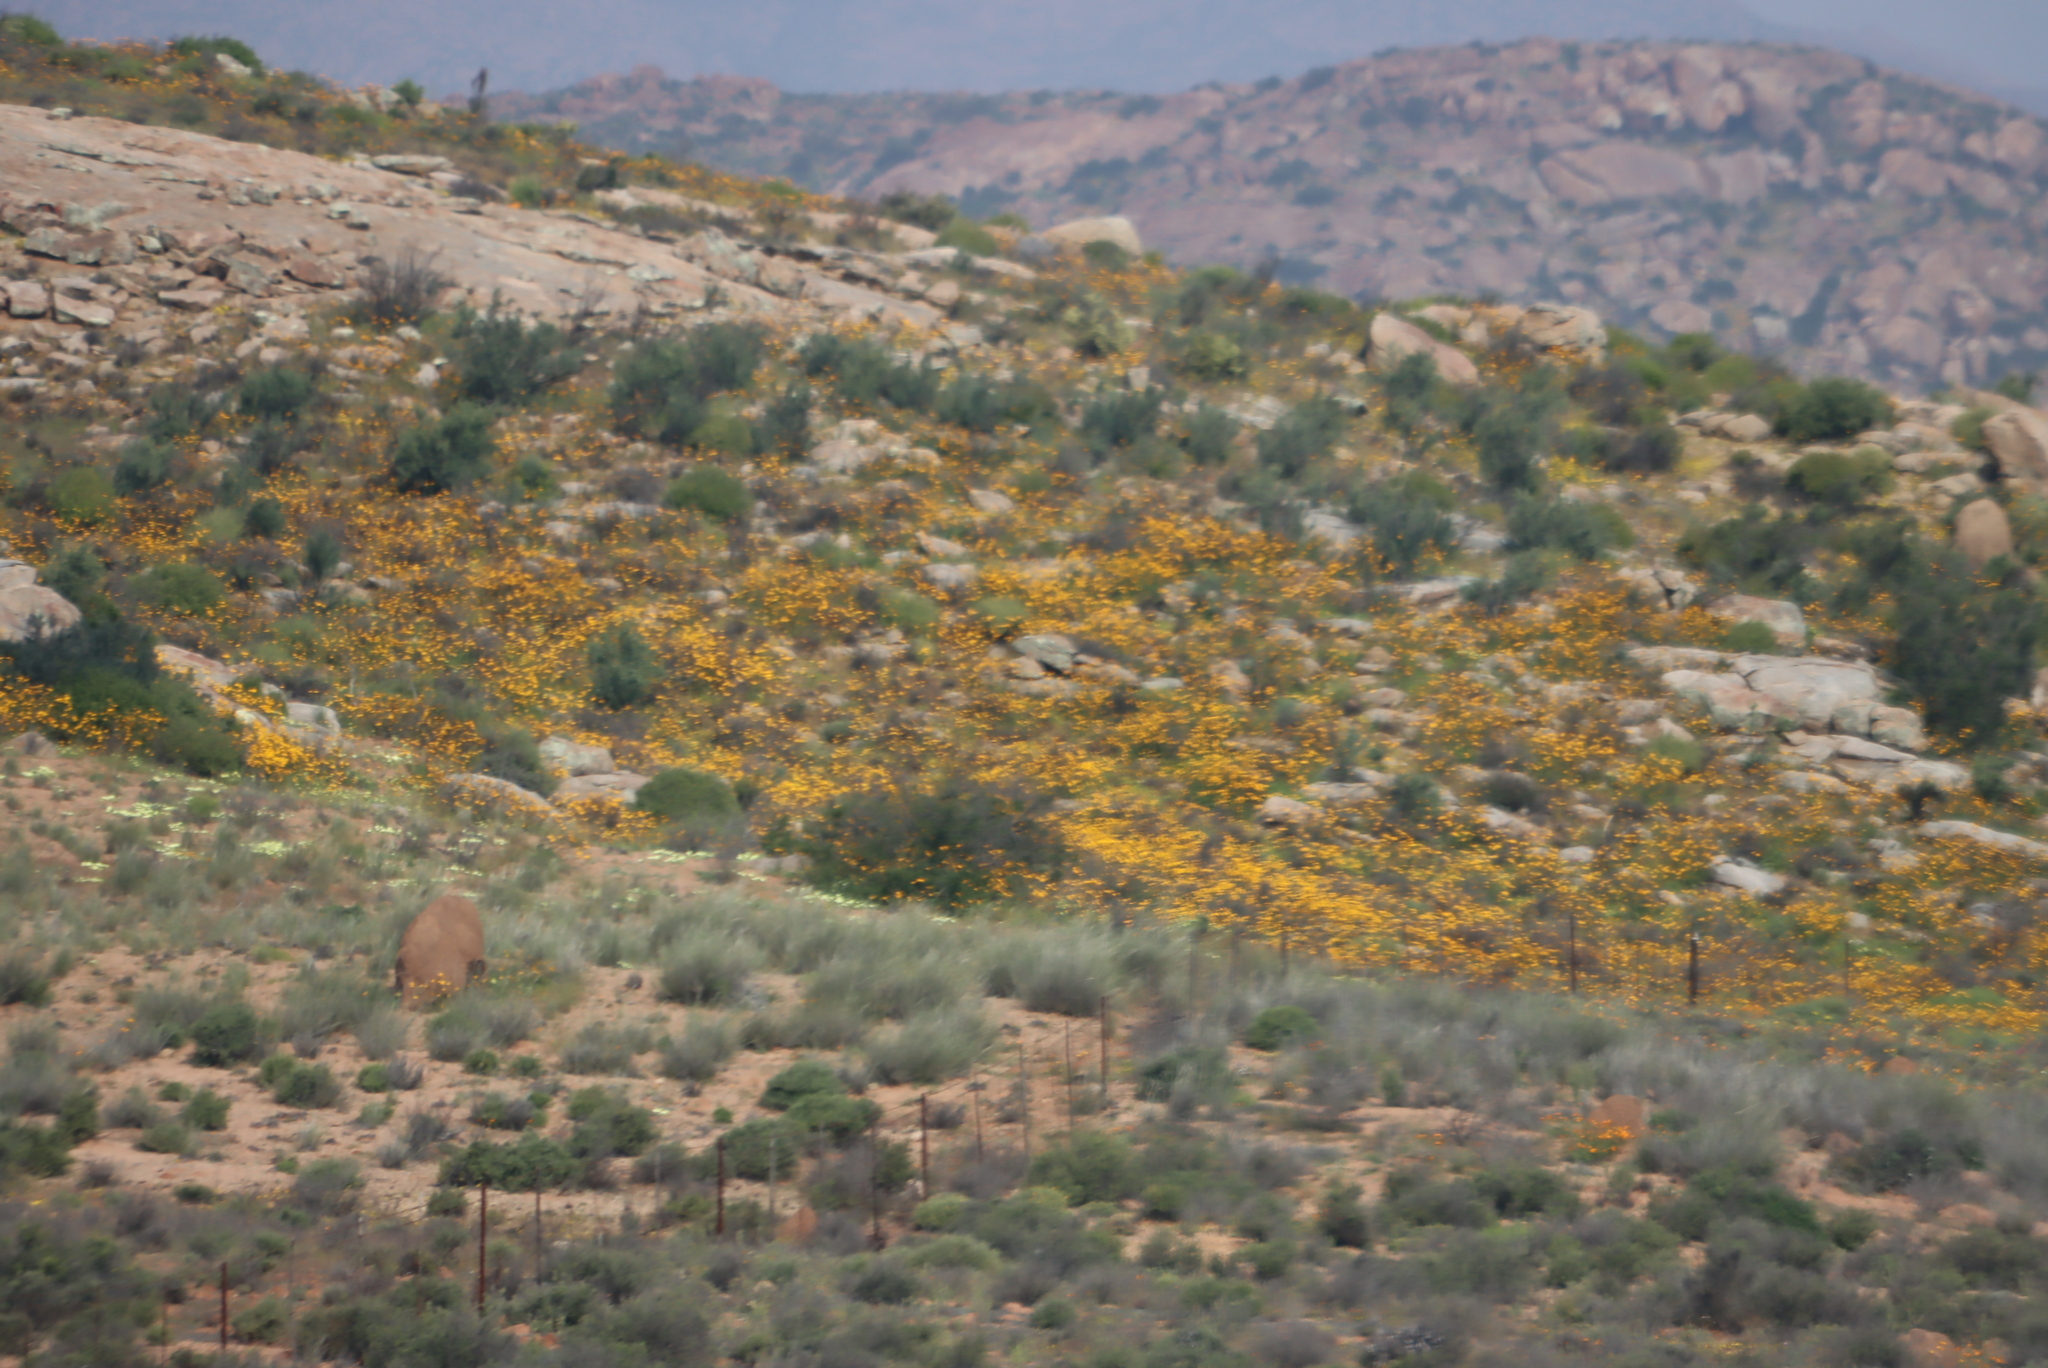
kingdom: Plantae
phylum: Tracheophyta
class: Magnoliopsida
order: Asterales
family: Asteraceae
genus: Dimorphotheca
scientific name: Dimorphotheca sinuata
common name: Glandular cape marigold
